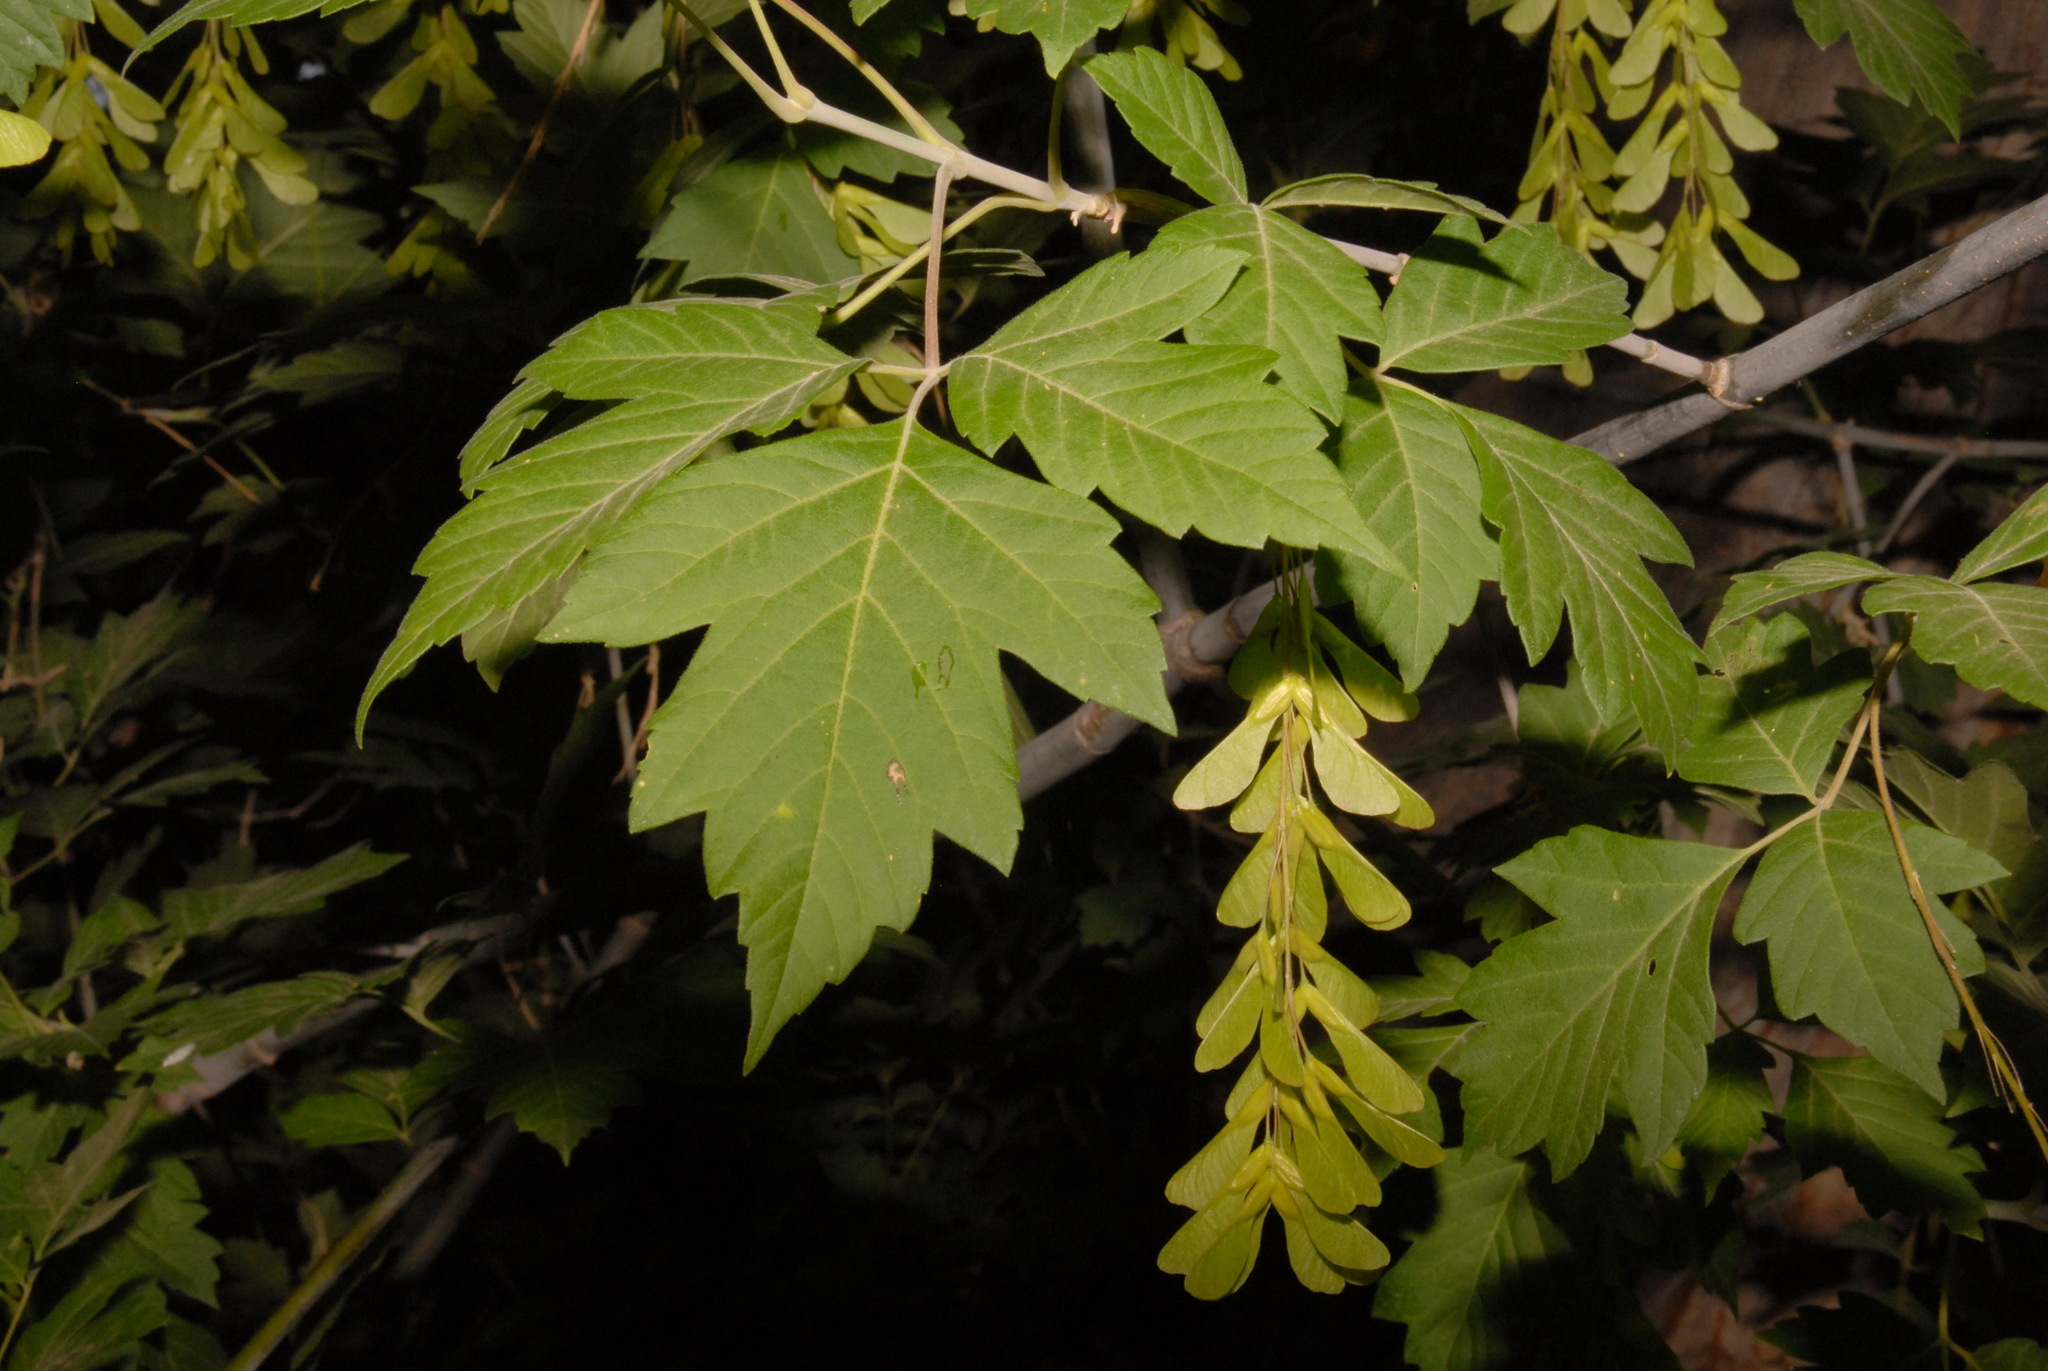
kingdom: Plantae
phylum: Tracheophyta
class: Magnoliopsida
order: Sapindales
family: Sapindaceae
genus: Acer
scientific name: Acer negundo
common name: Ashleaf maple
